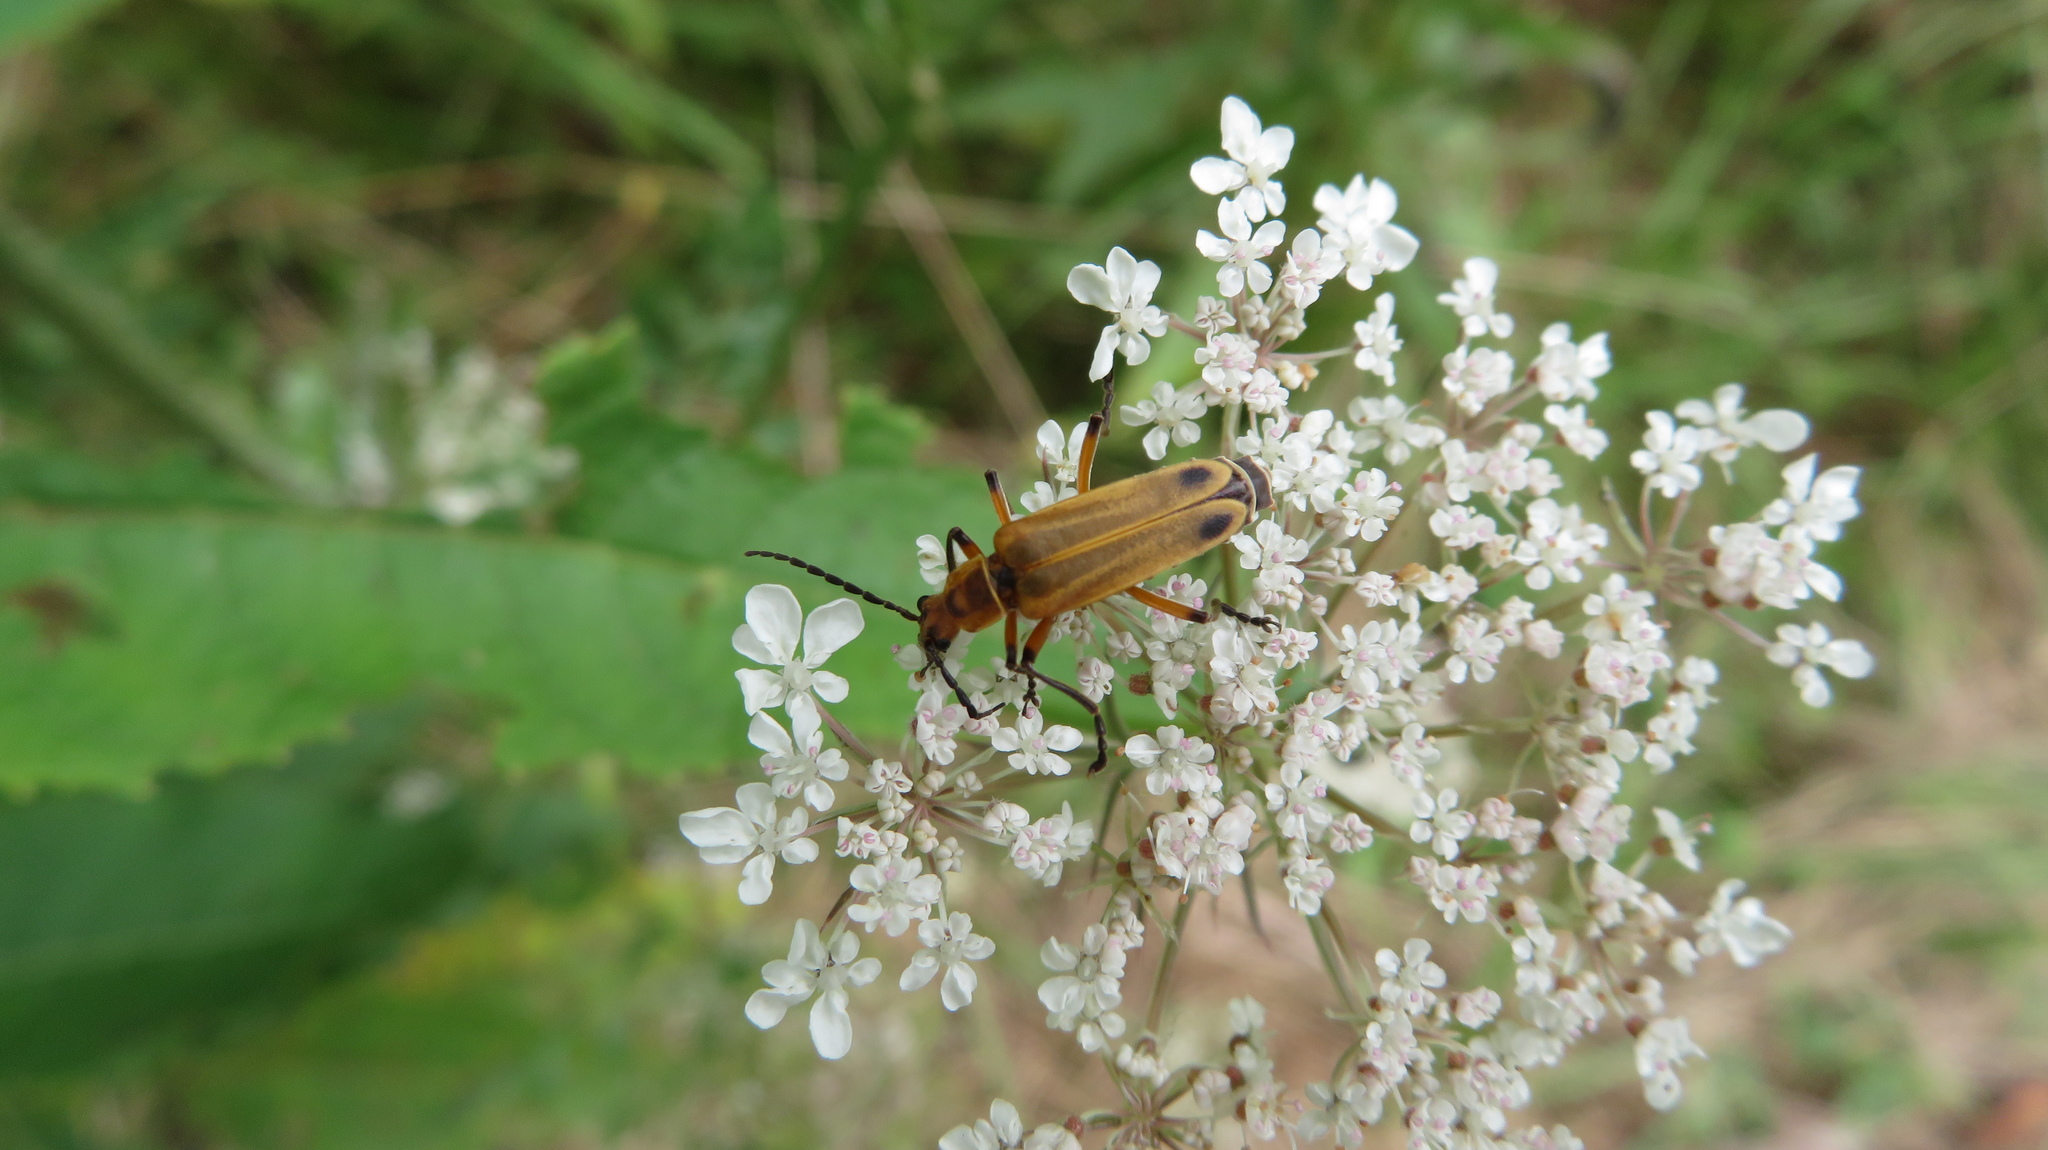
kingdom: Animalia
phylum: Arthropoda
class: Insecta
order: Coleoptera
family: Cantharidae
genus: Chauliognathus
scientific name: Chauliognathus marginatus
